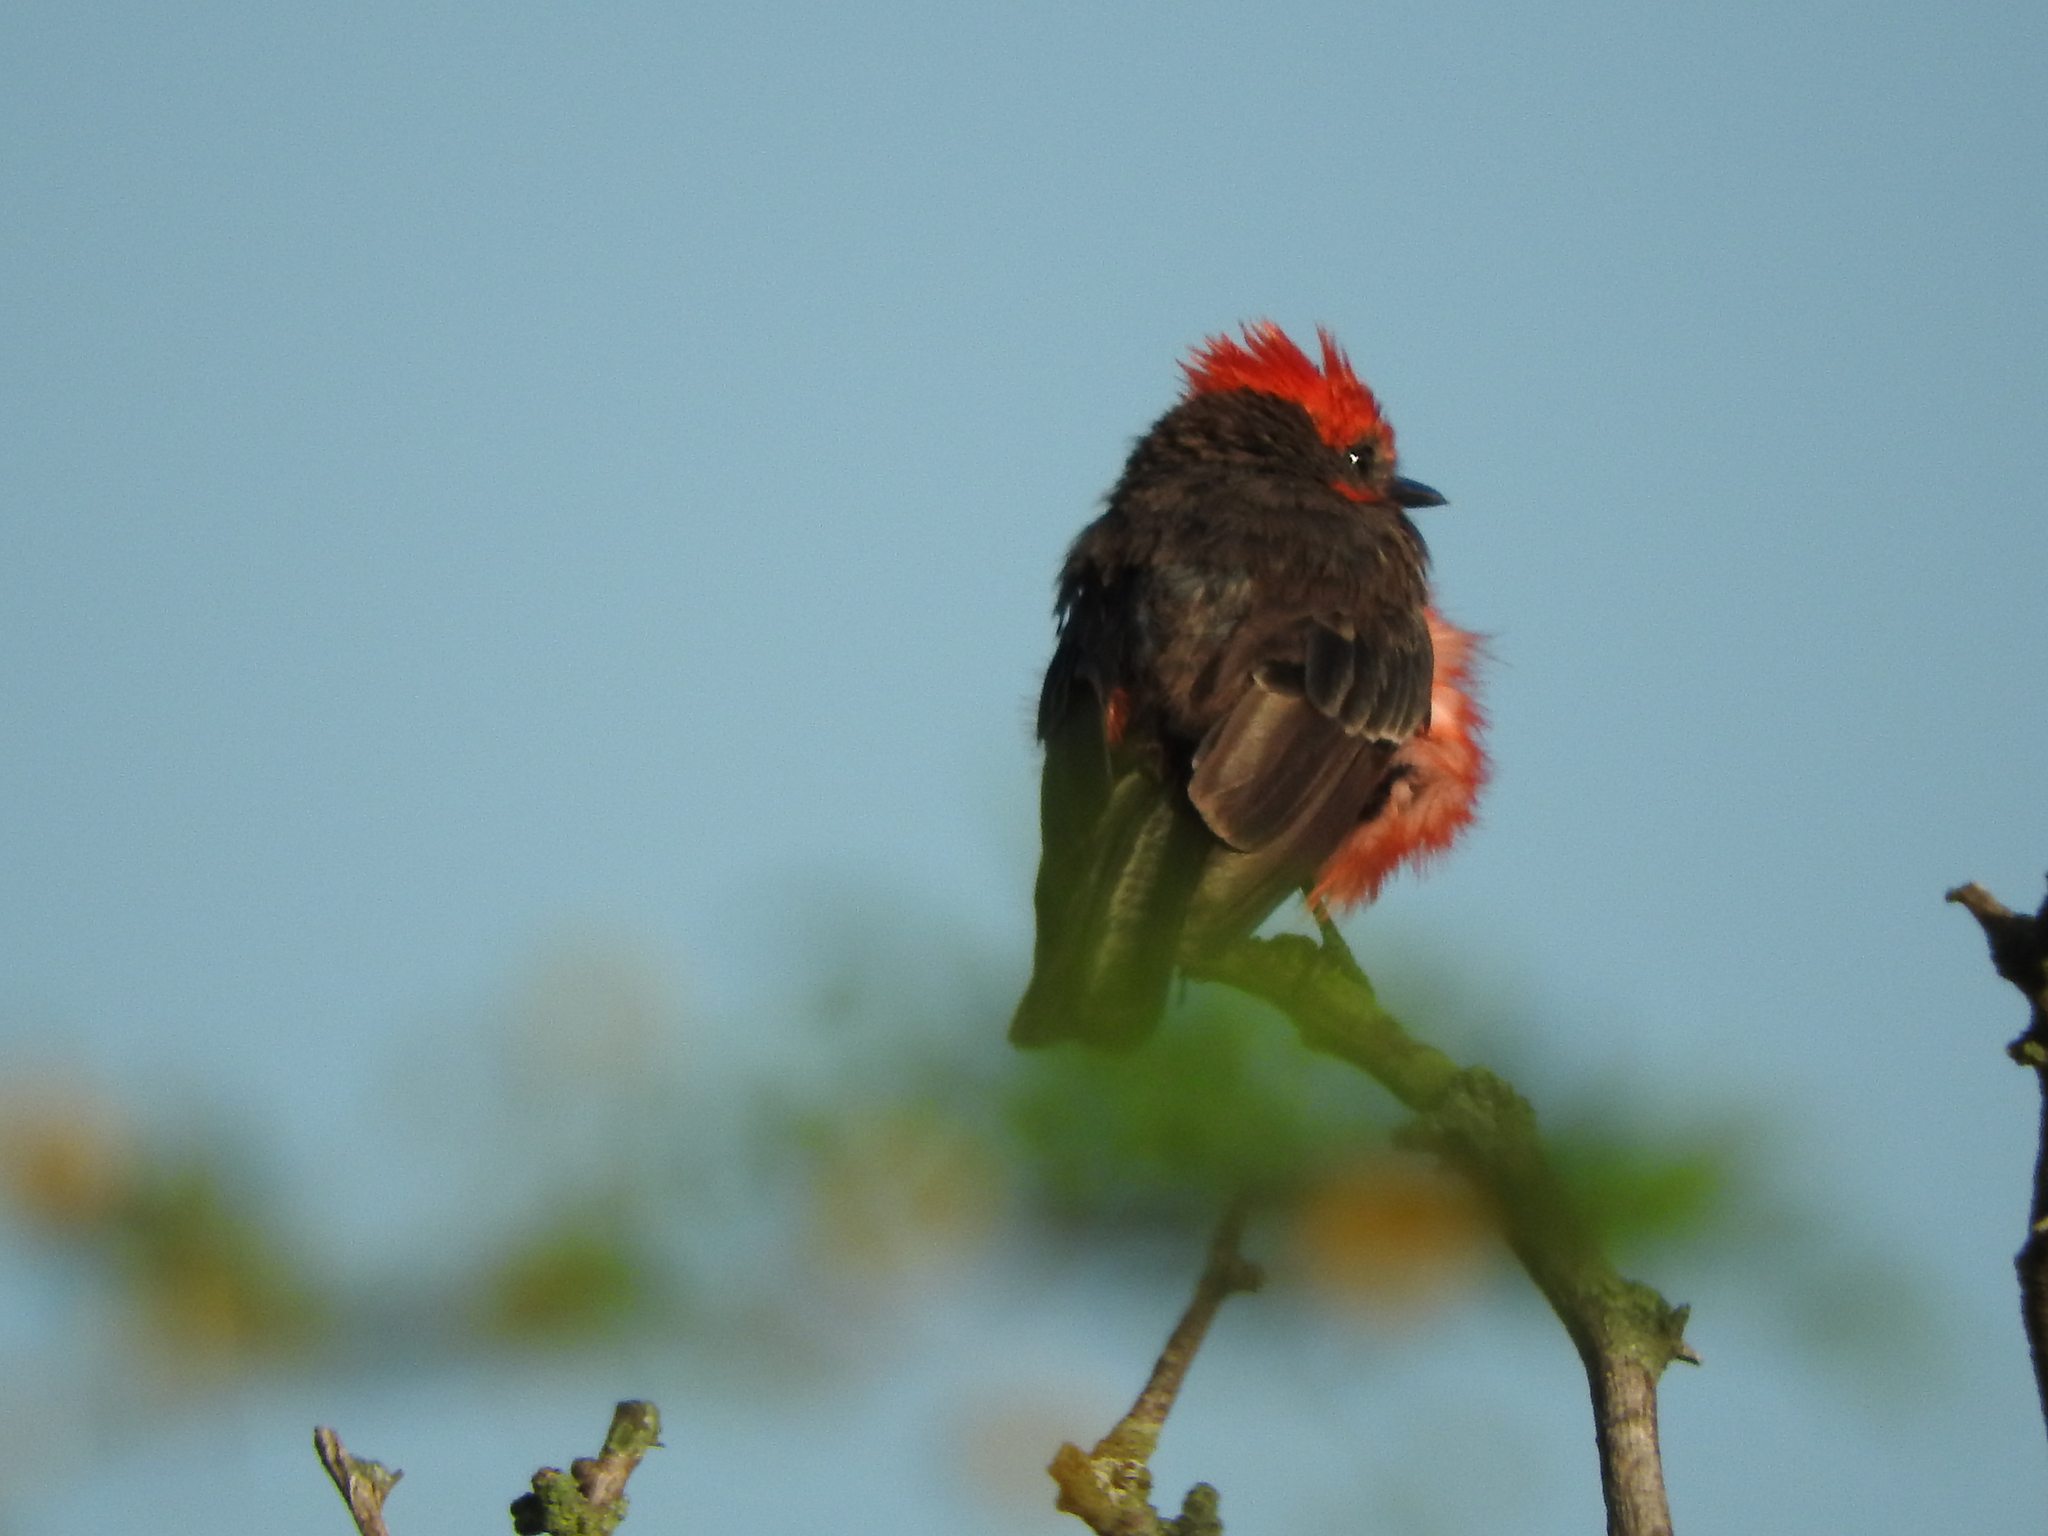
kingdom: Animalia
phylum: Chordata
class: Aves
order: Passeriformes
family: Tyrannidae
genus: Pyrocephalus
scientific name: Pyrocephalus rubinus
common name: Vermilion flycatcher
